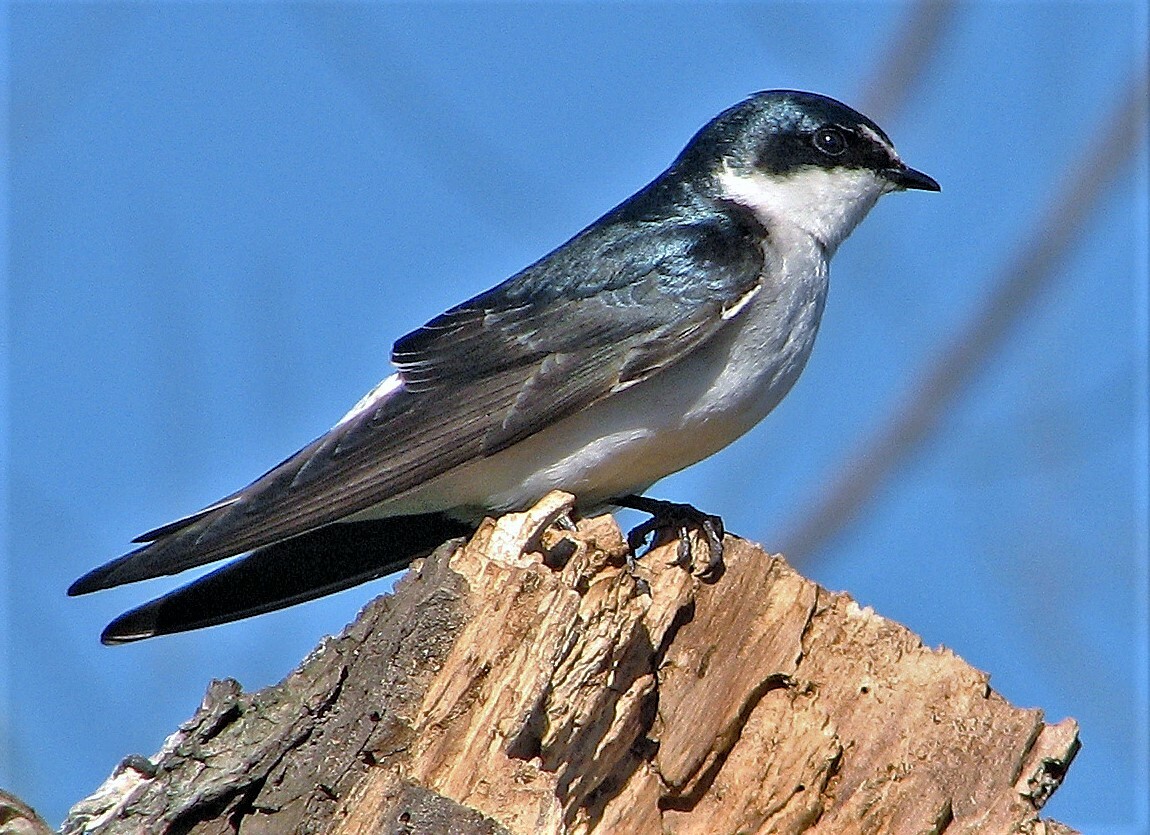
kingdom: Animalia
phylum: Chordata
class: Aves
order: Passeriformes
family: Hirundinidae
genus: Tachycineta
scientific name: Tachycineta leucorrhoa
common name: White-rumped swallow
